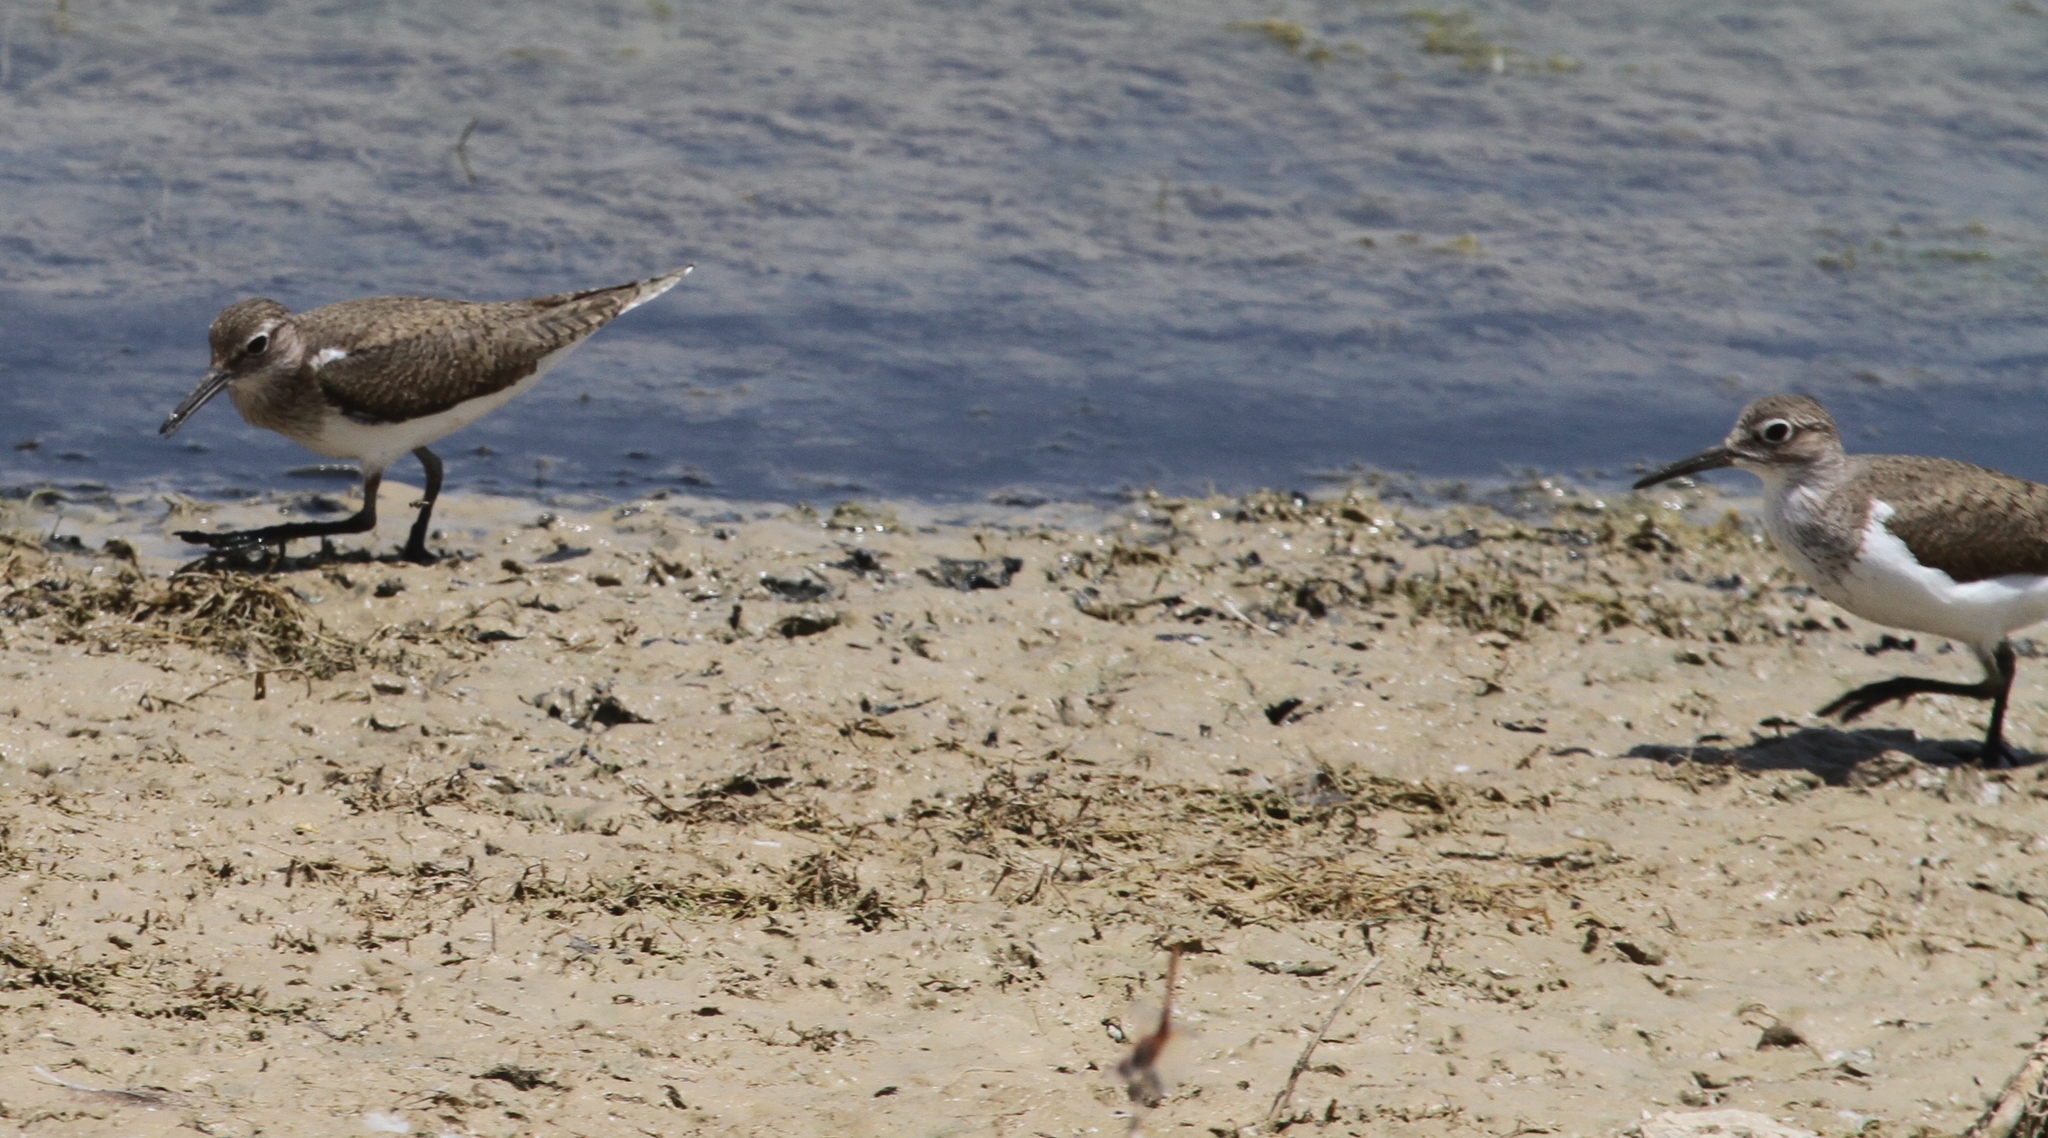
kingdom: Animalia
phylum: Chordata
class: Aves
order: Charadriiformes
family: Scolopacidae
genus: Actitis
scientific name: Actitis hypoleucos
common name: Common sandpiper
